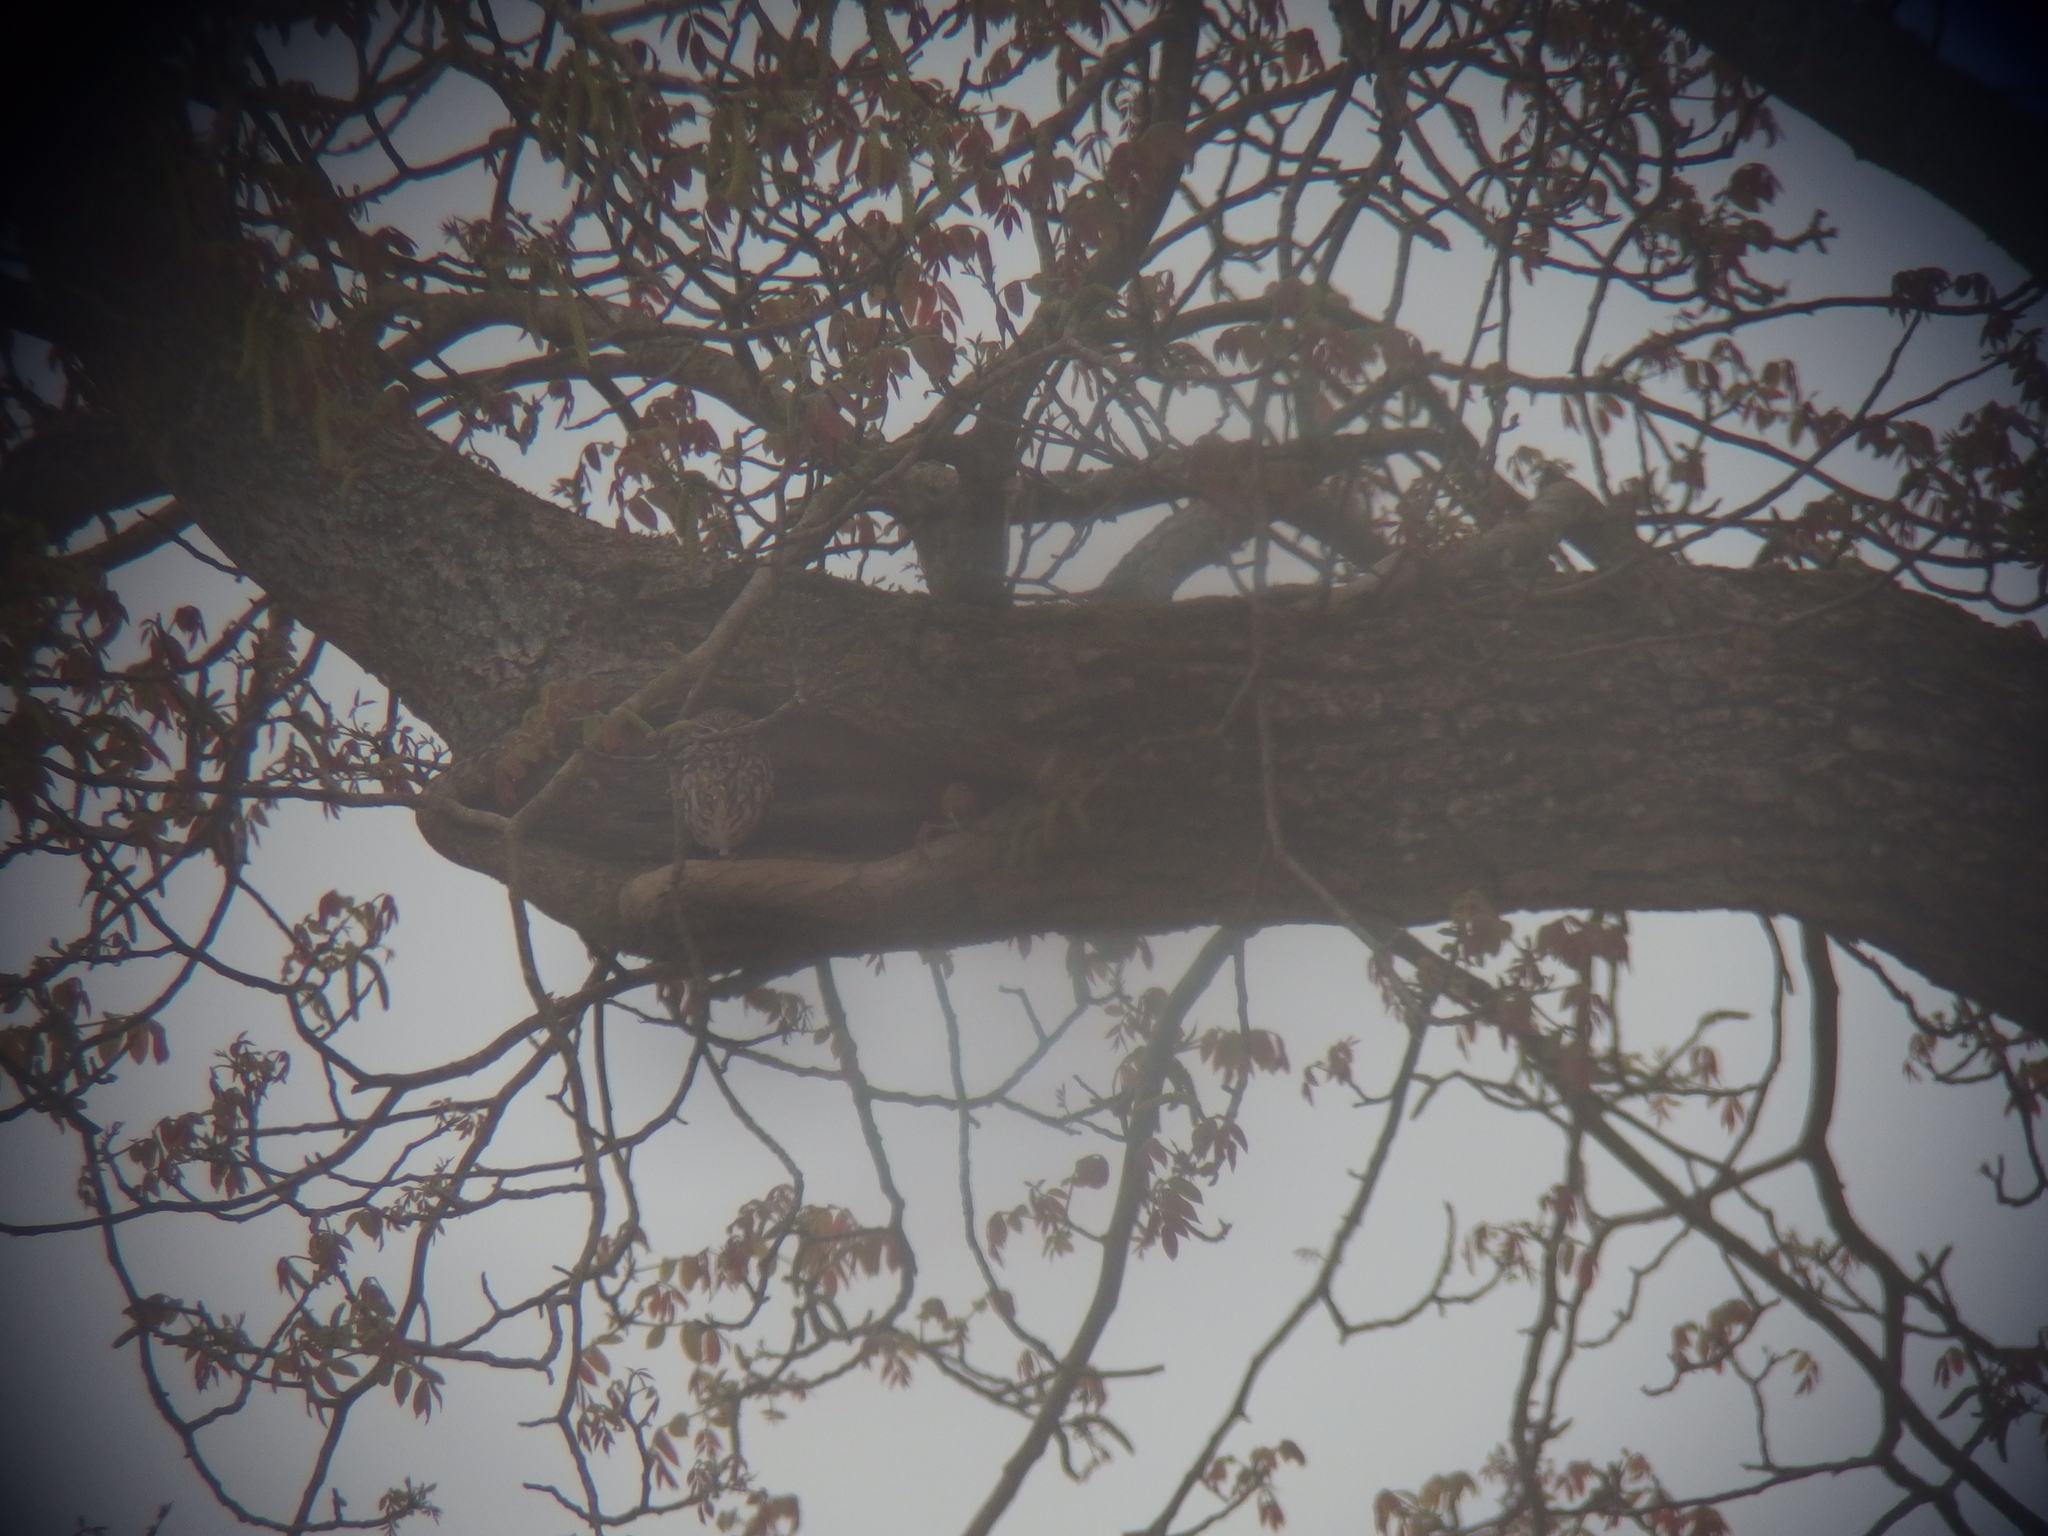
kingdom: Animalia
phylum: Chordata
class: Aves
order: Strigiformes
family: Strigidae
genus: Athene
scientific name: Athene noctua
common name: Little owl
